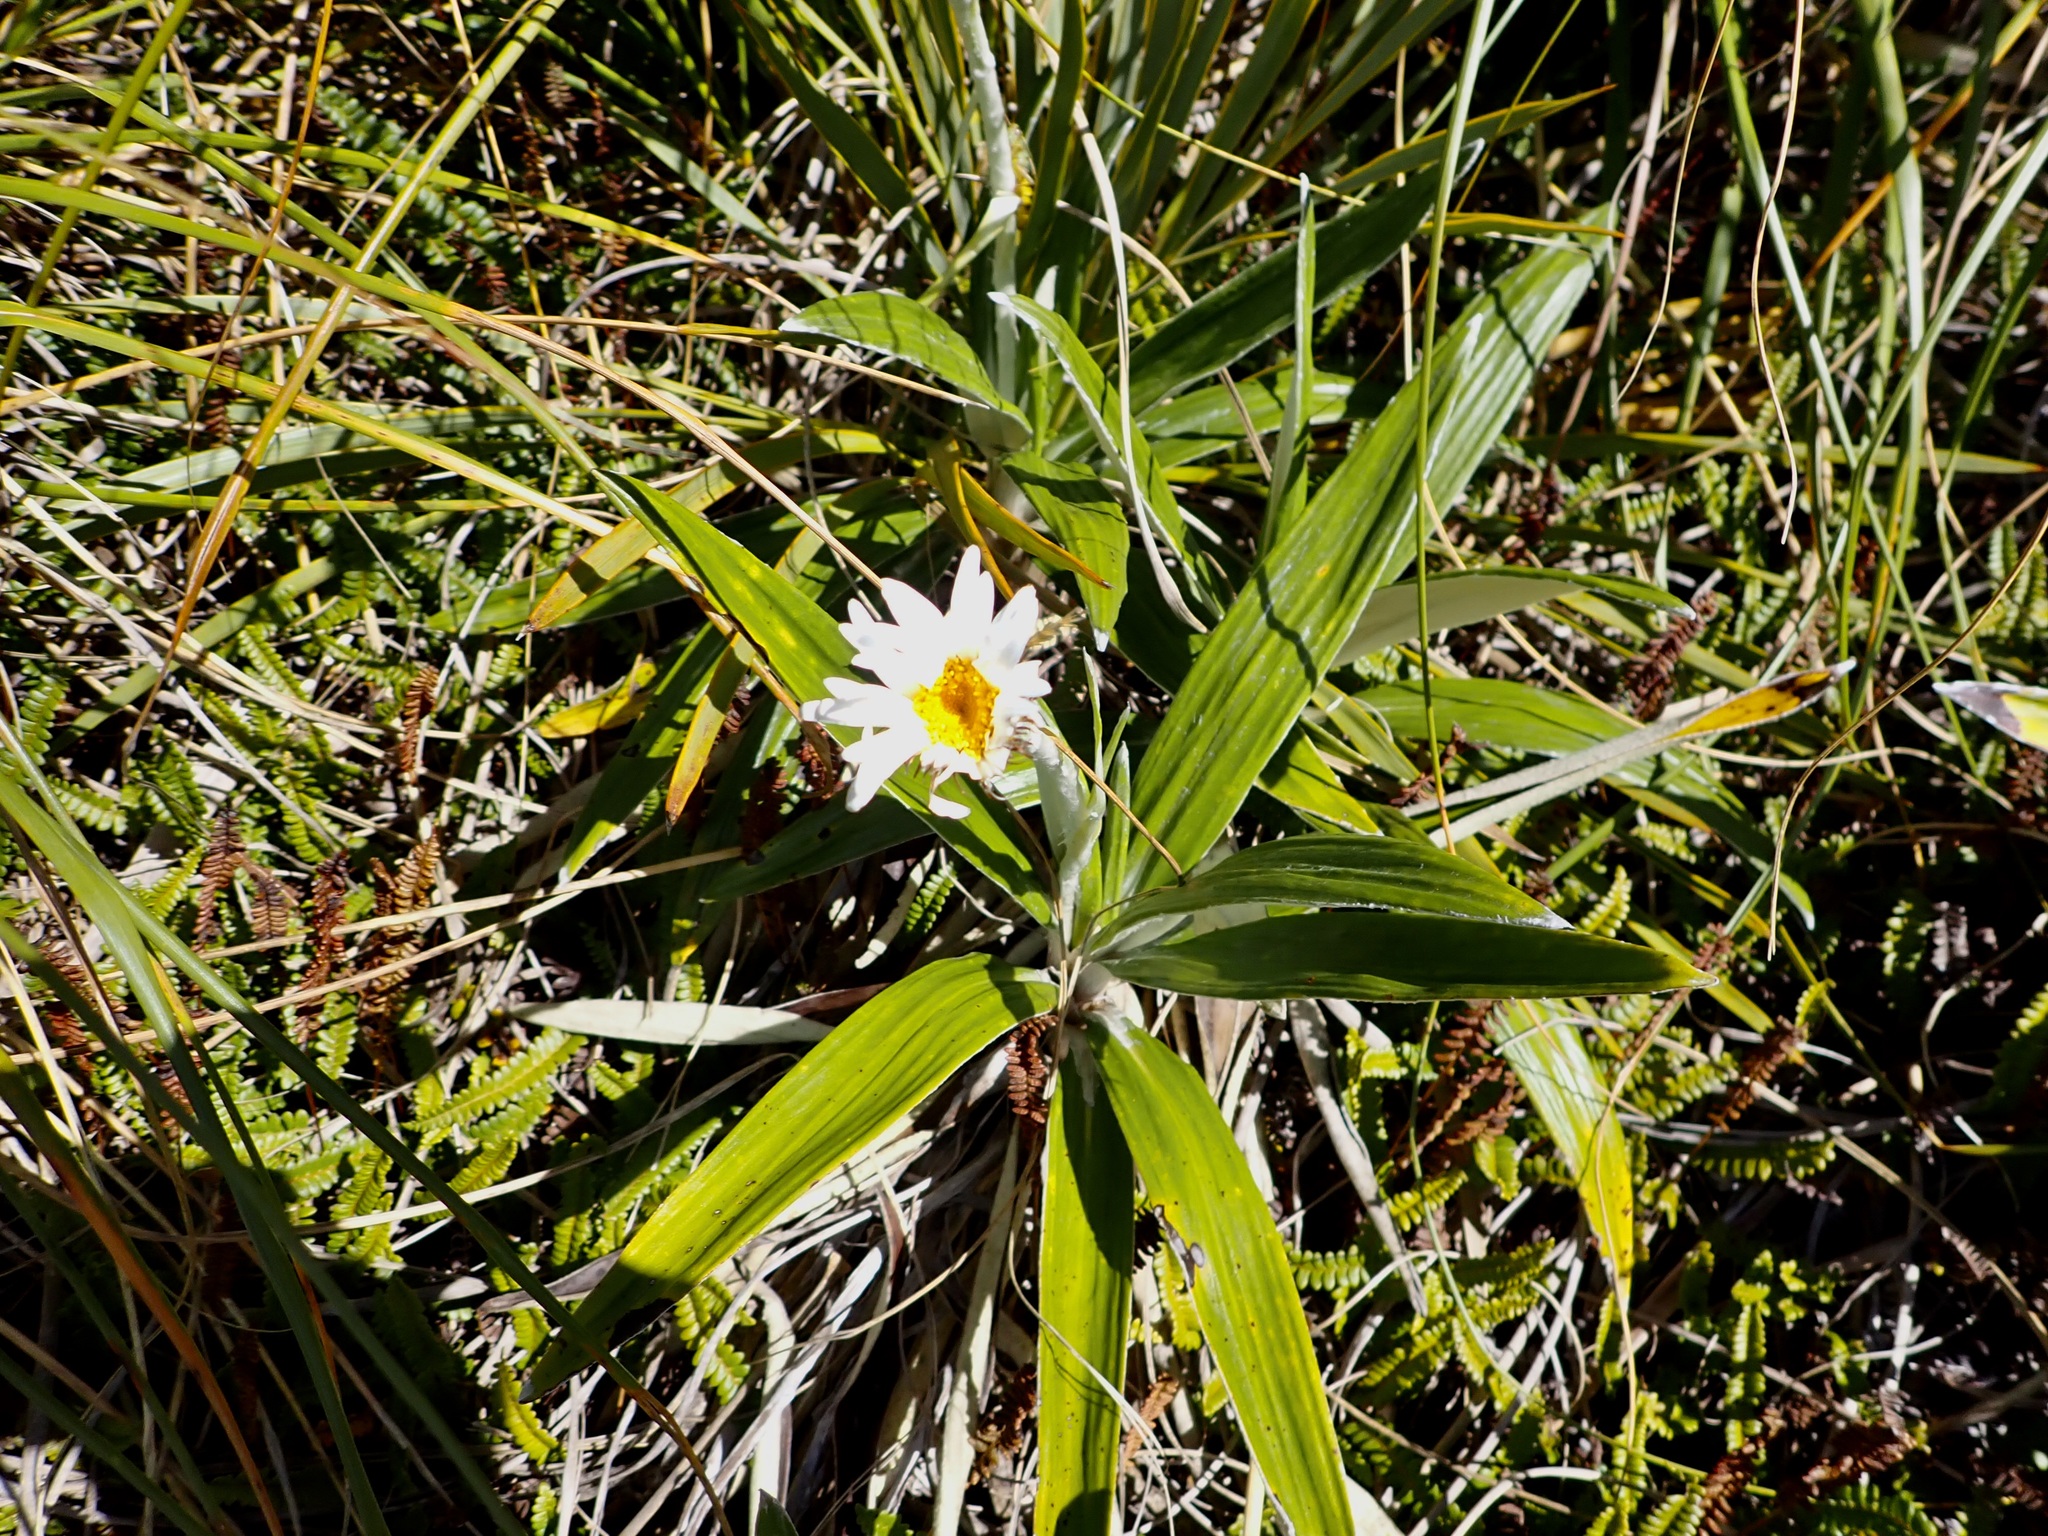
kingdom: Plantae
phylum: Tracheophyta
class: Magnoliopsida
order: Asterales
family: Asteraceae
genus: Celmisia
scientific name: Celmisia spectabilis
